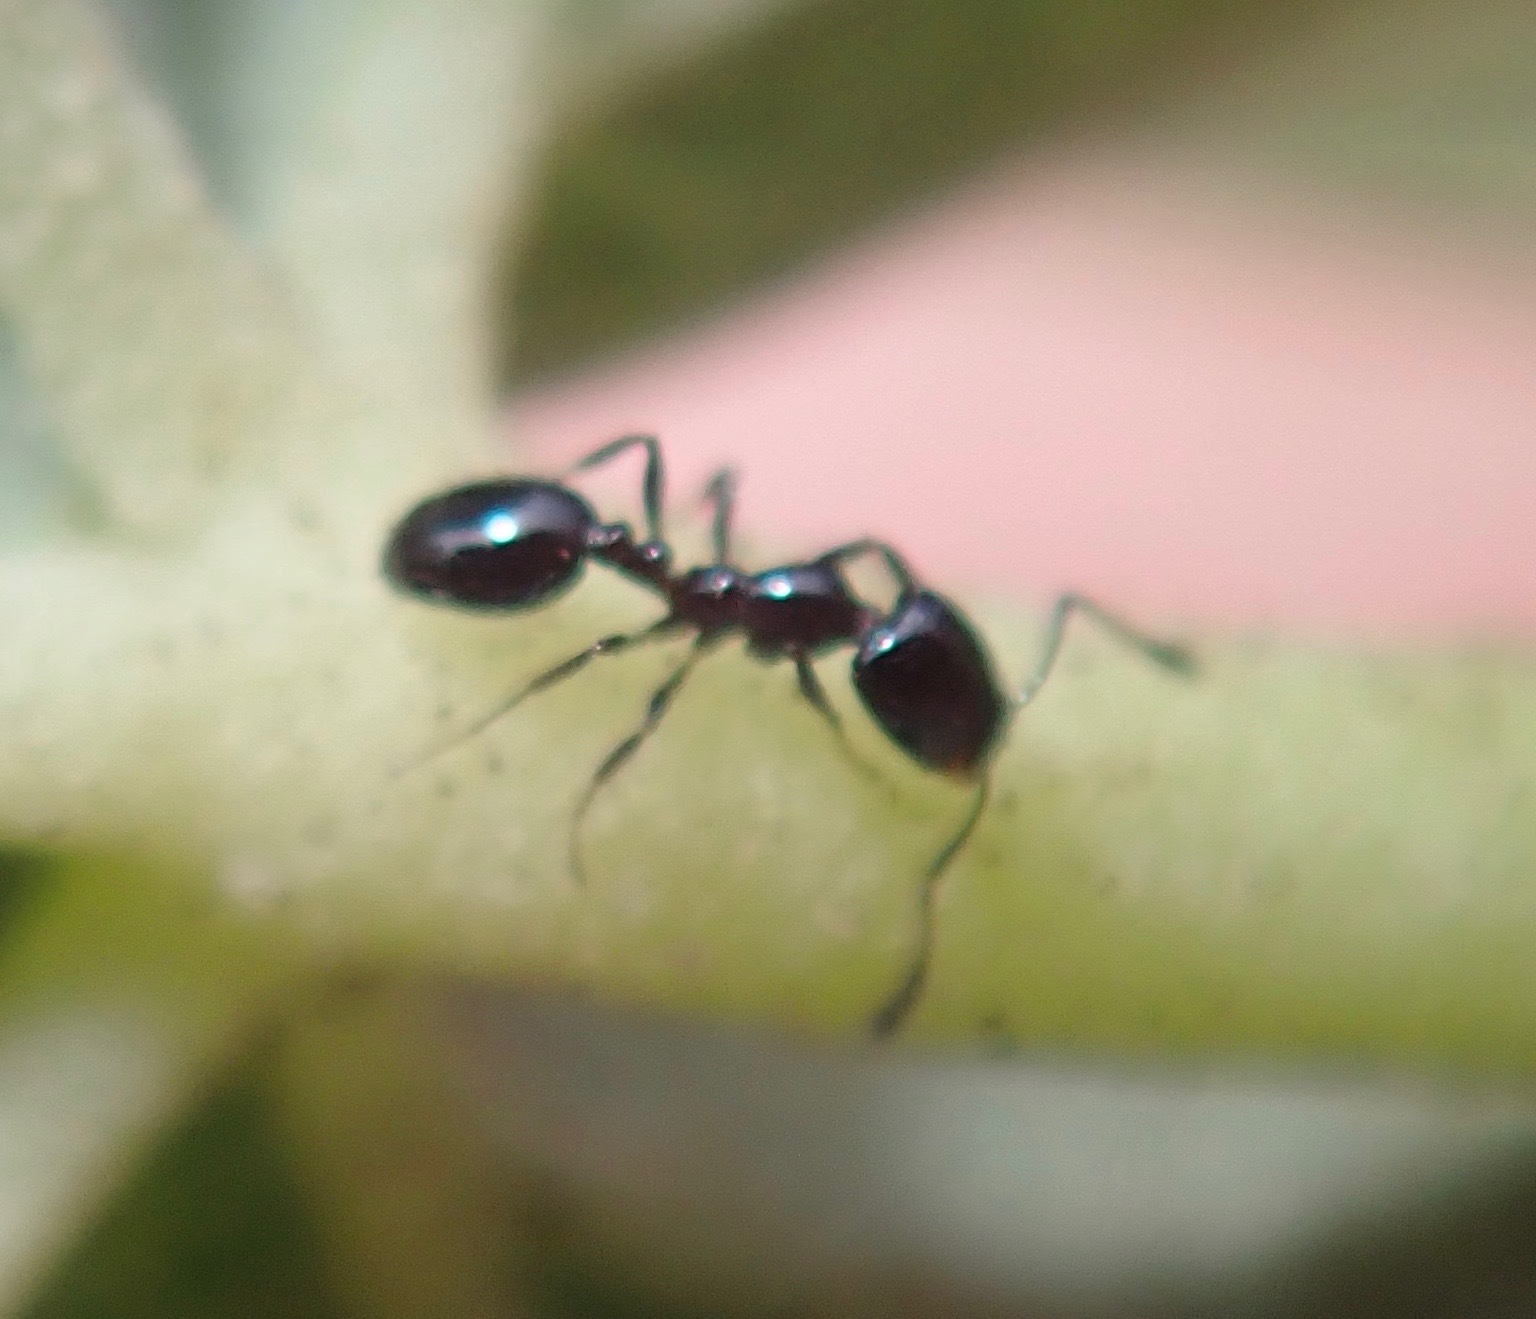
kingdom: Animalia
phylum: Arthropoda
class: Insecta
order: Hymenoptera
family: Formicidae
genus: Monomorium
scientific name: Monomorium
